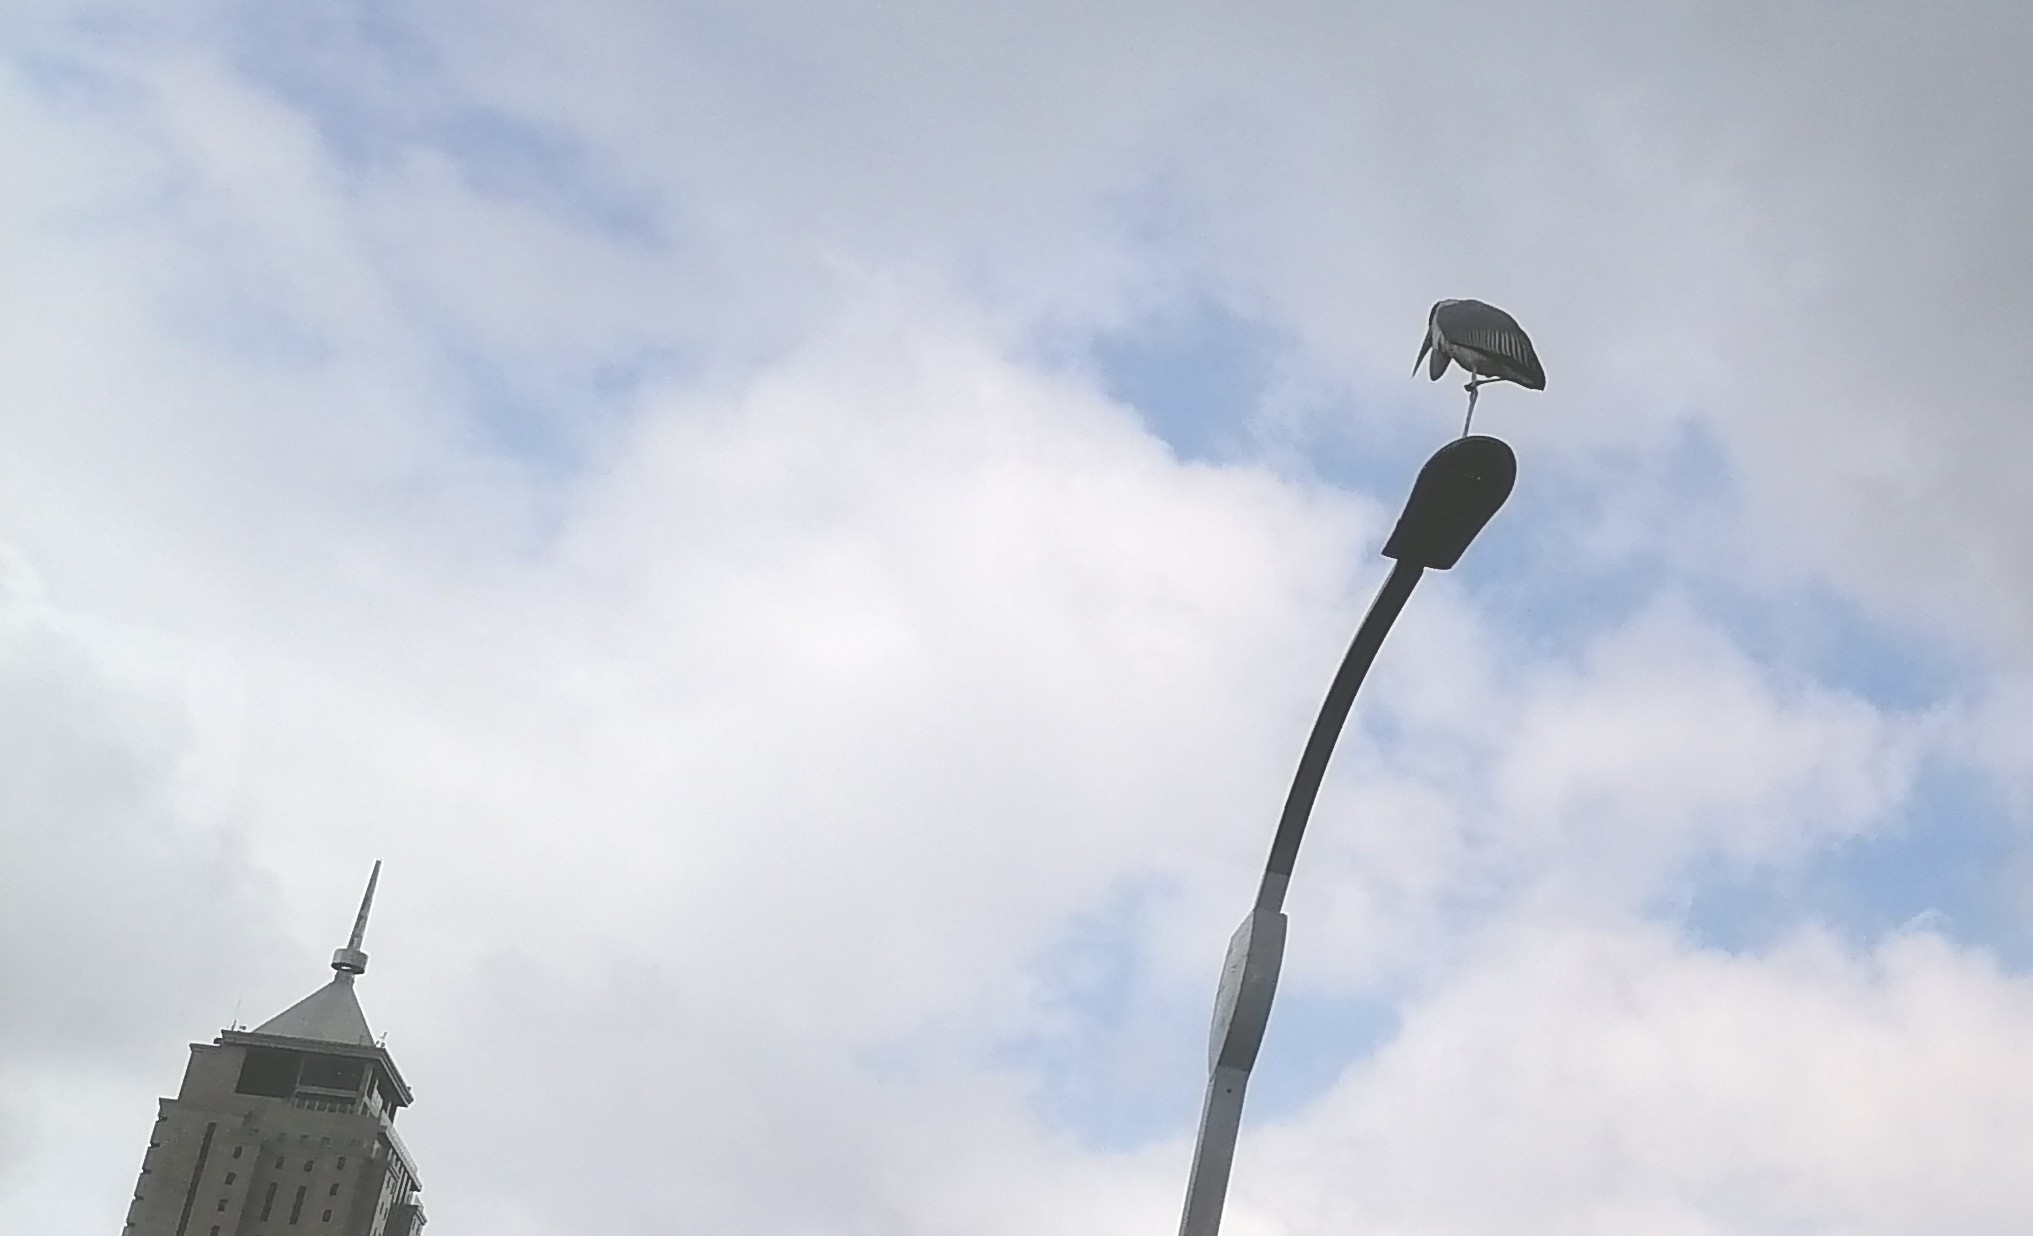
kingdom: Animalia
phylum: Chordata
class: Aves
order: Ciconiiformes
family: Ciconiidae
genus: Leptoptilos
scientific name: Leptoptilos crumenifer
